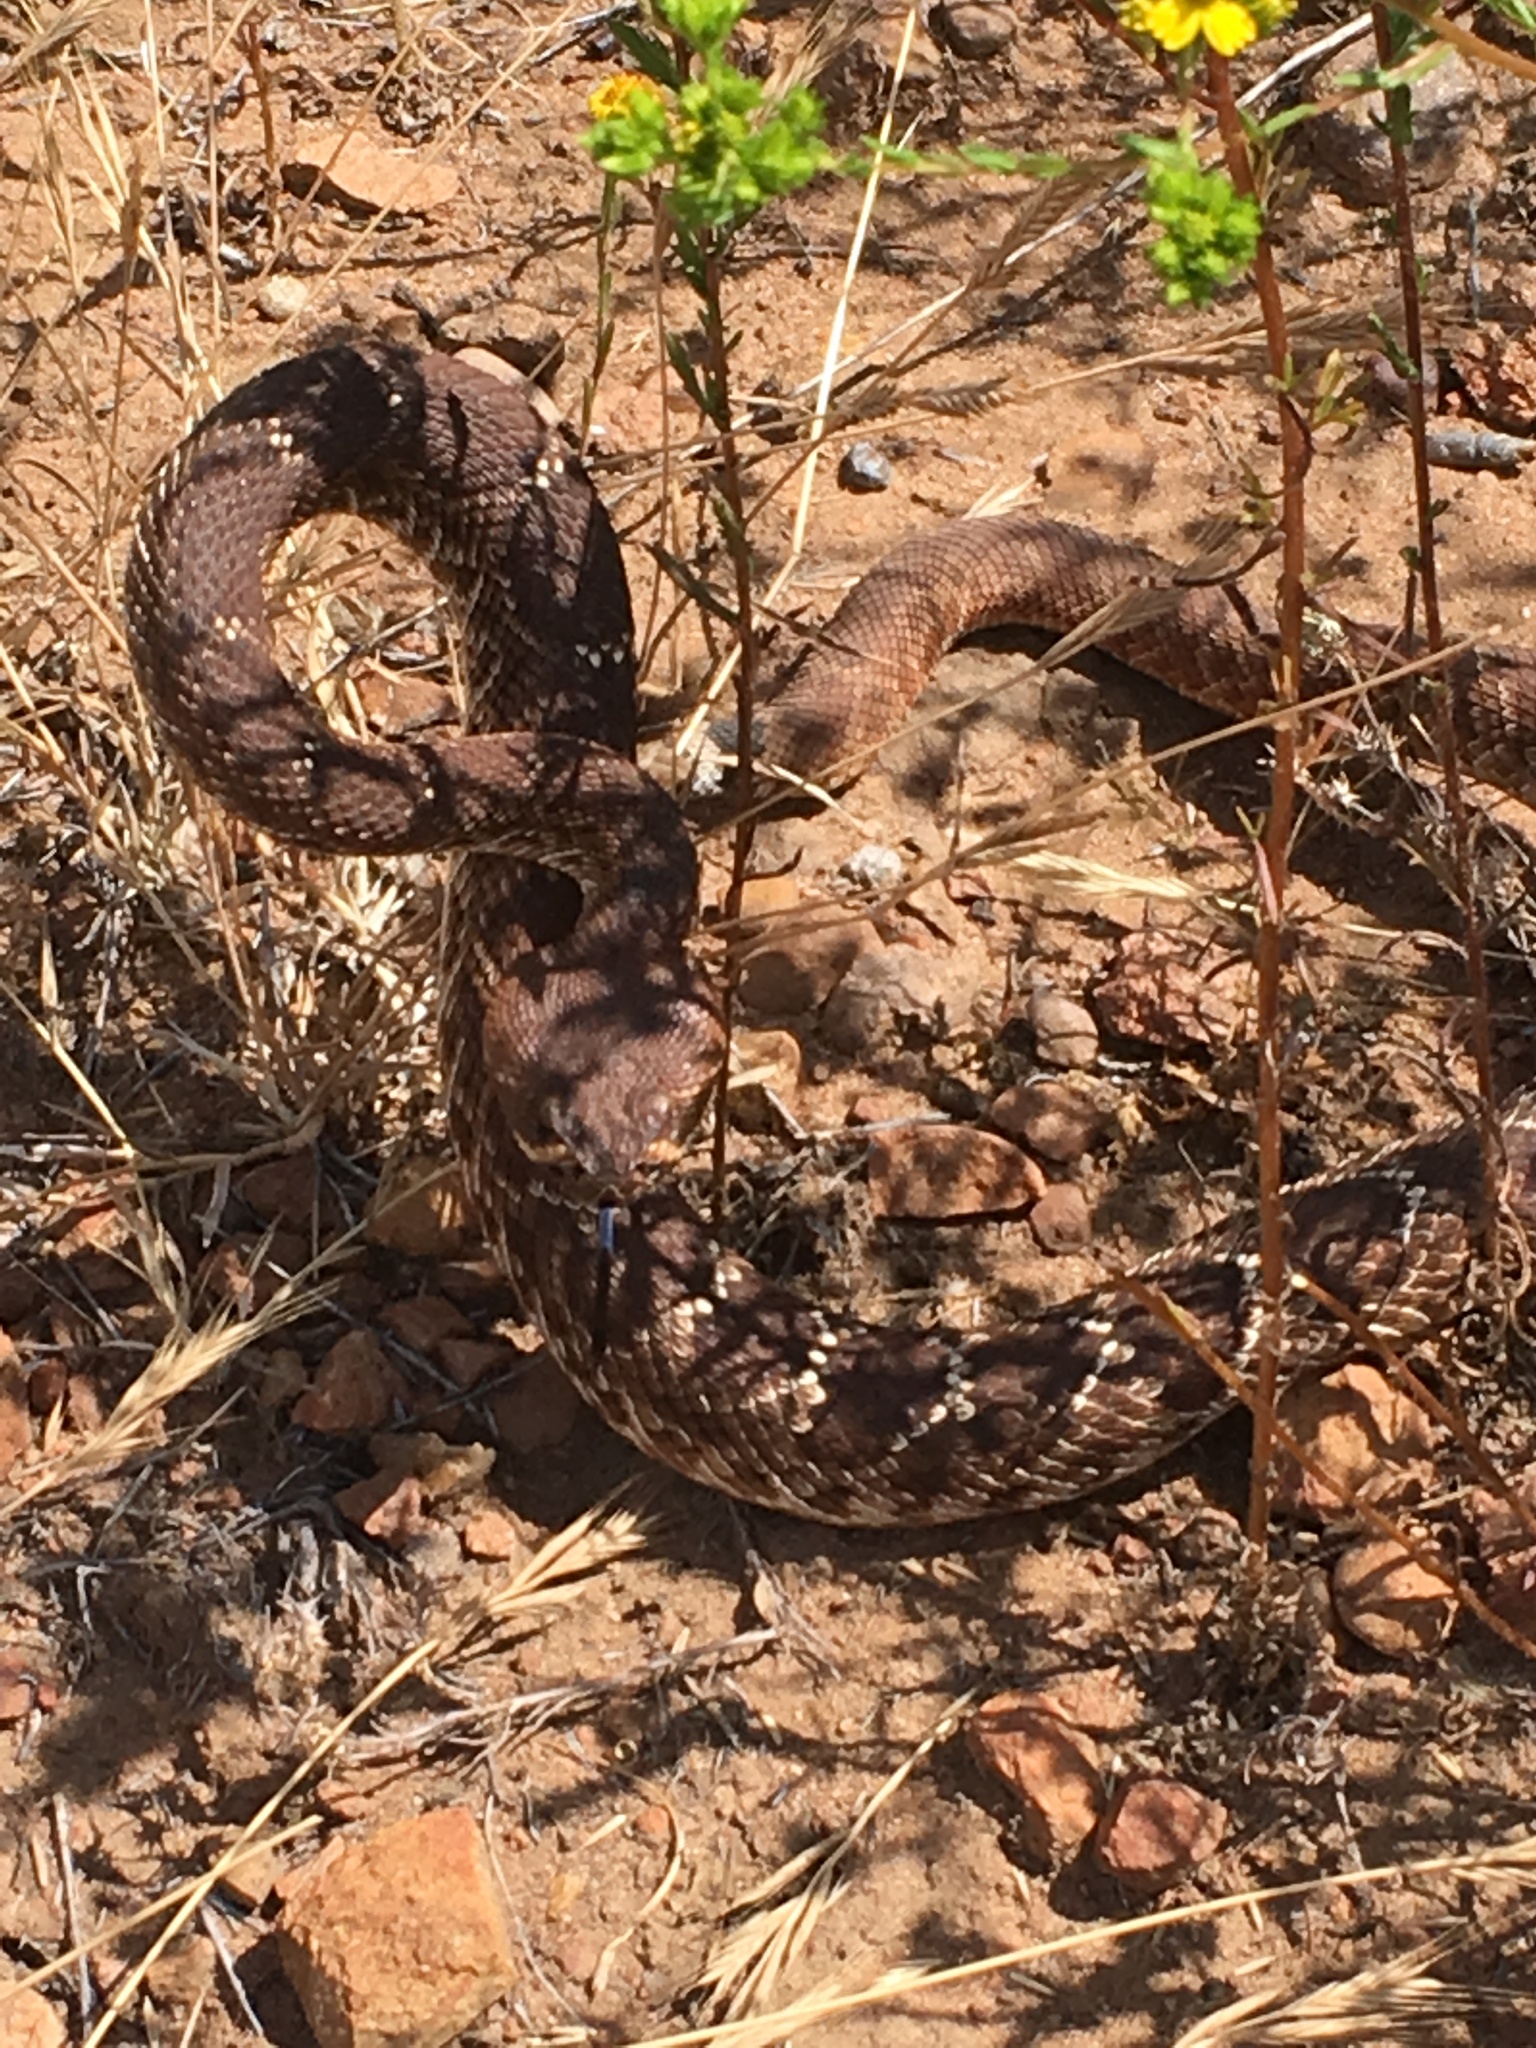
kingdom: Animalia
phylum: Chordata
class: Squamata
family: Viperidae
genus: Crotalus
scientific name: Crotalus ruber
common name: Red diamond rattlesnake
